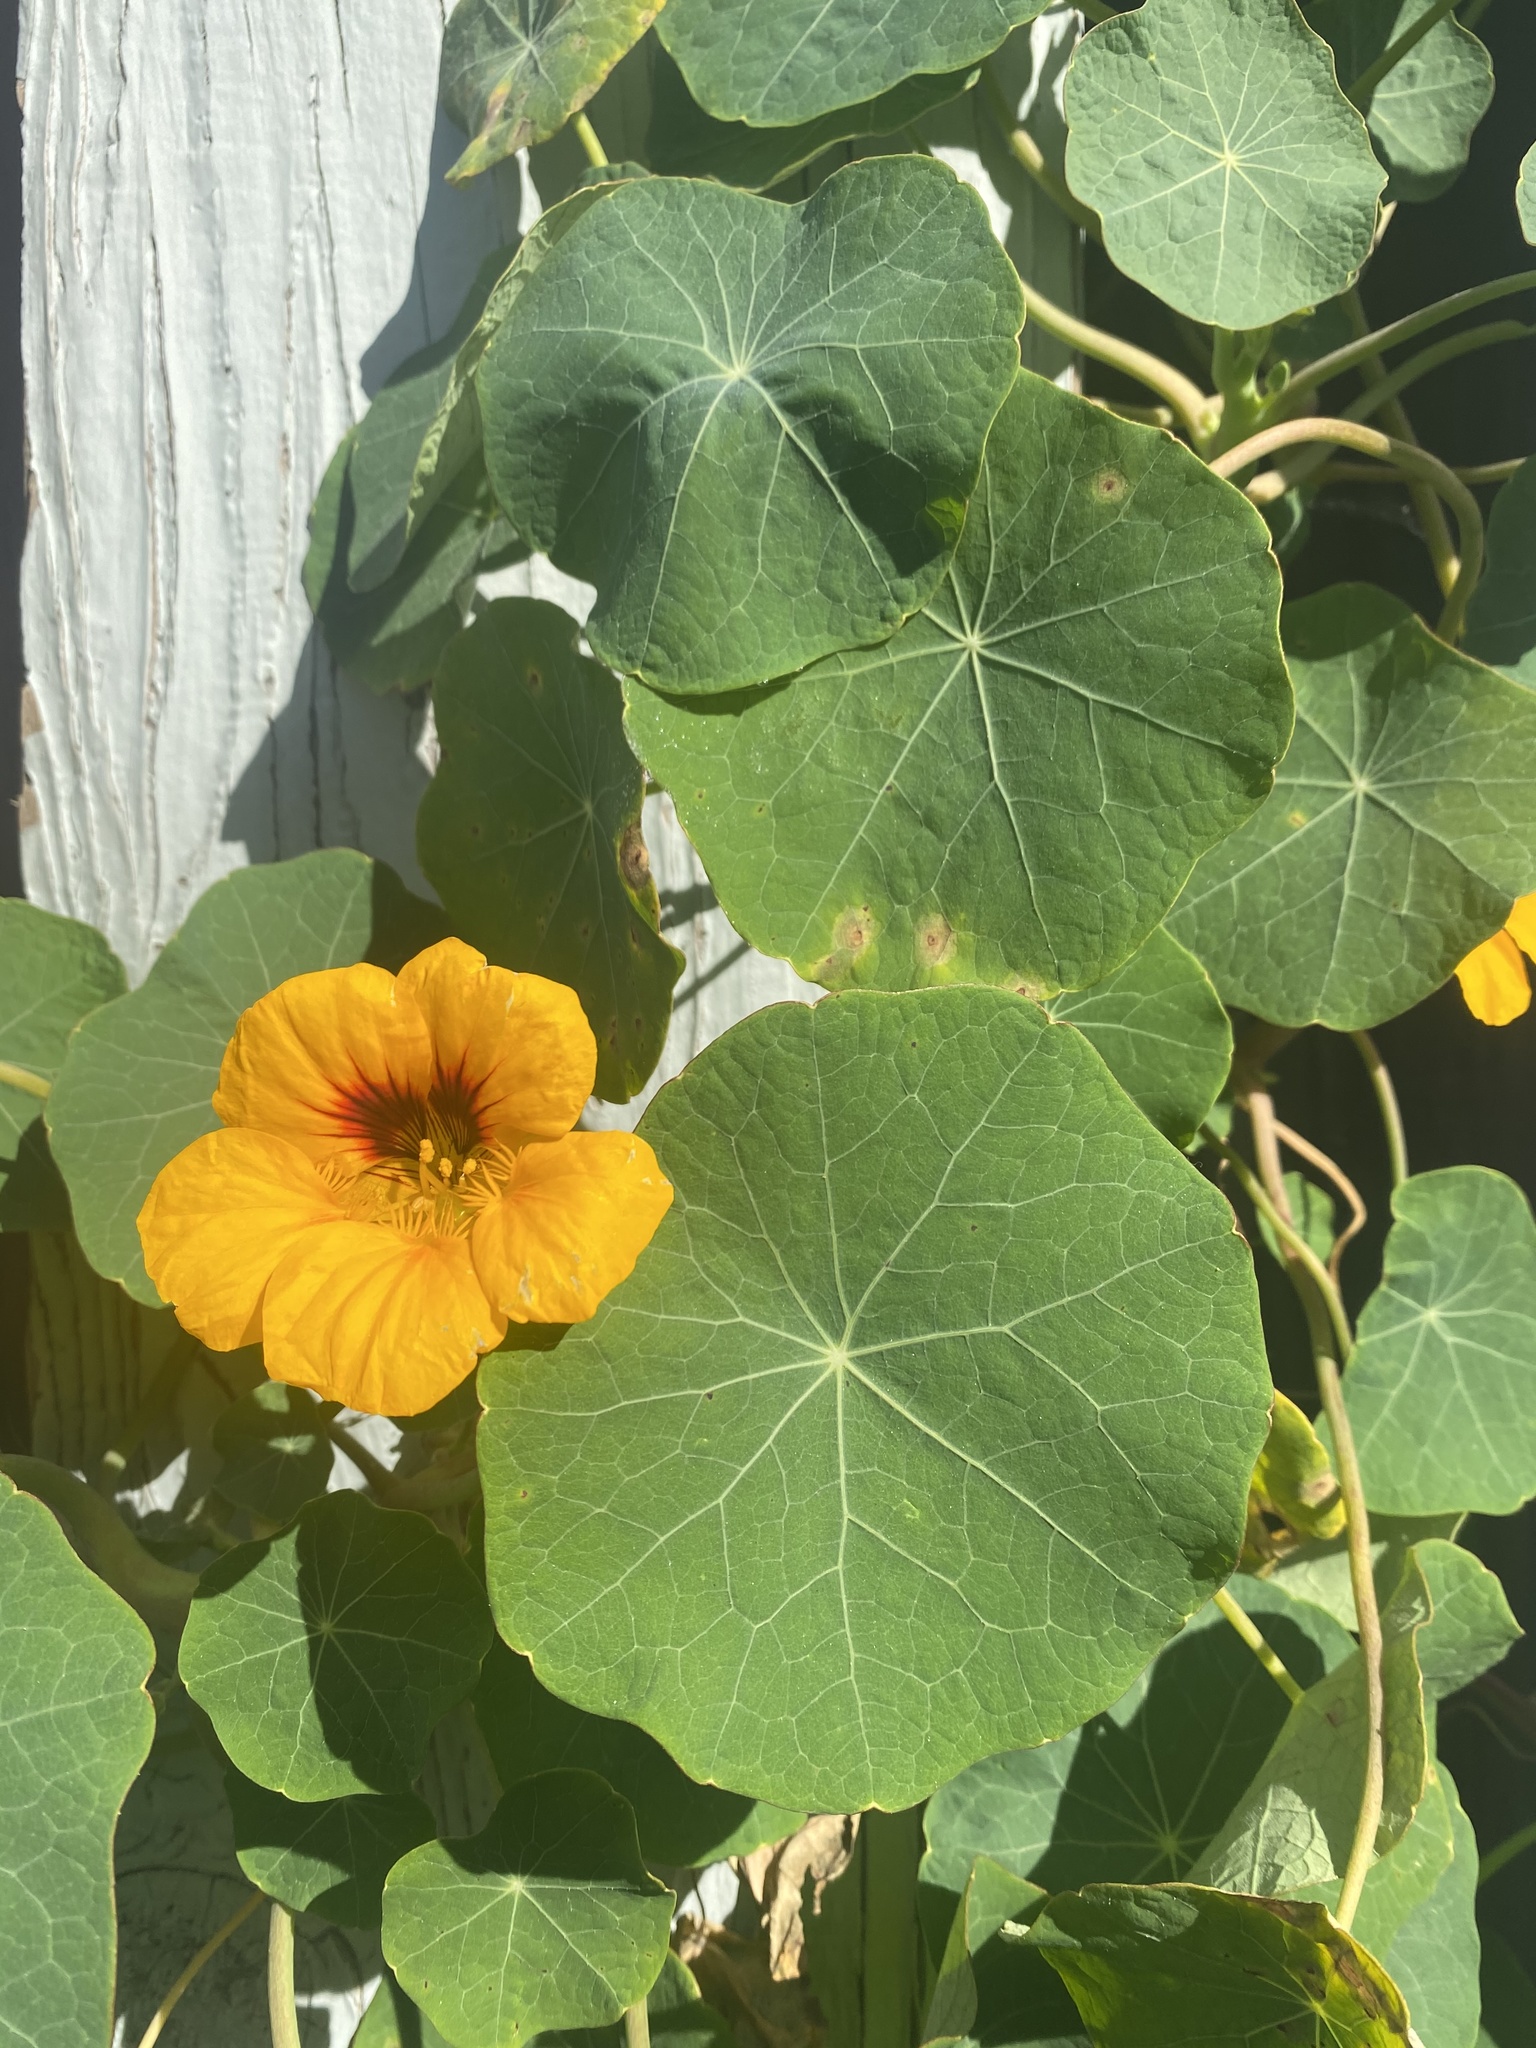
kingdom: Plantae
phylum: Tracheophyta
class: Magnoliopsida
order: Brassicales
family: Tropaeolaceae
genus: Tropaeolum
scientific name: Tropaeolum majus
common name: Nasturtium
